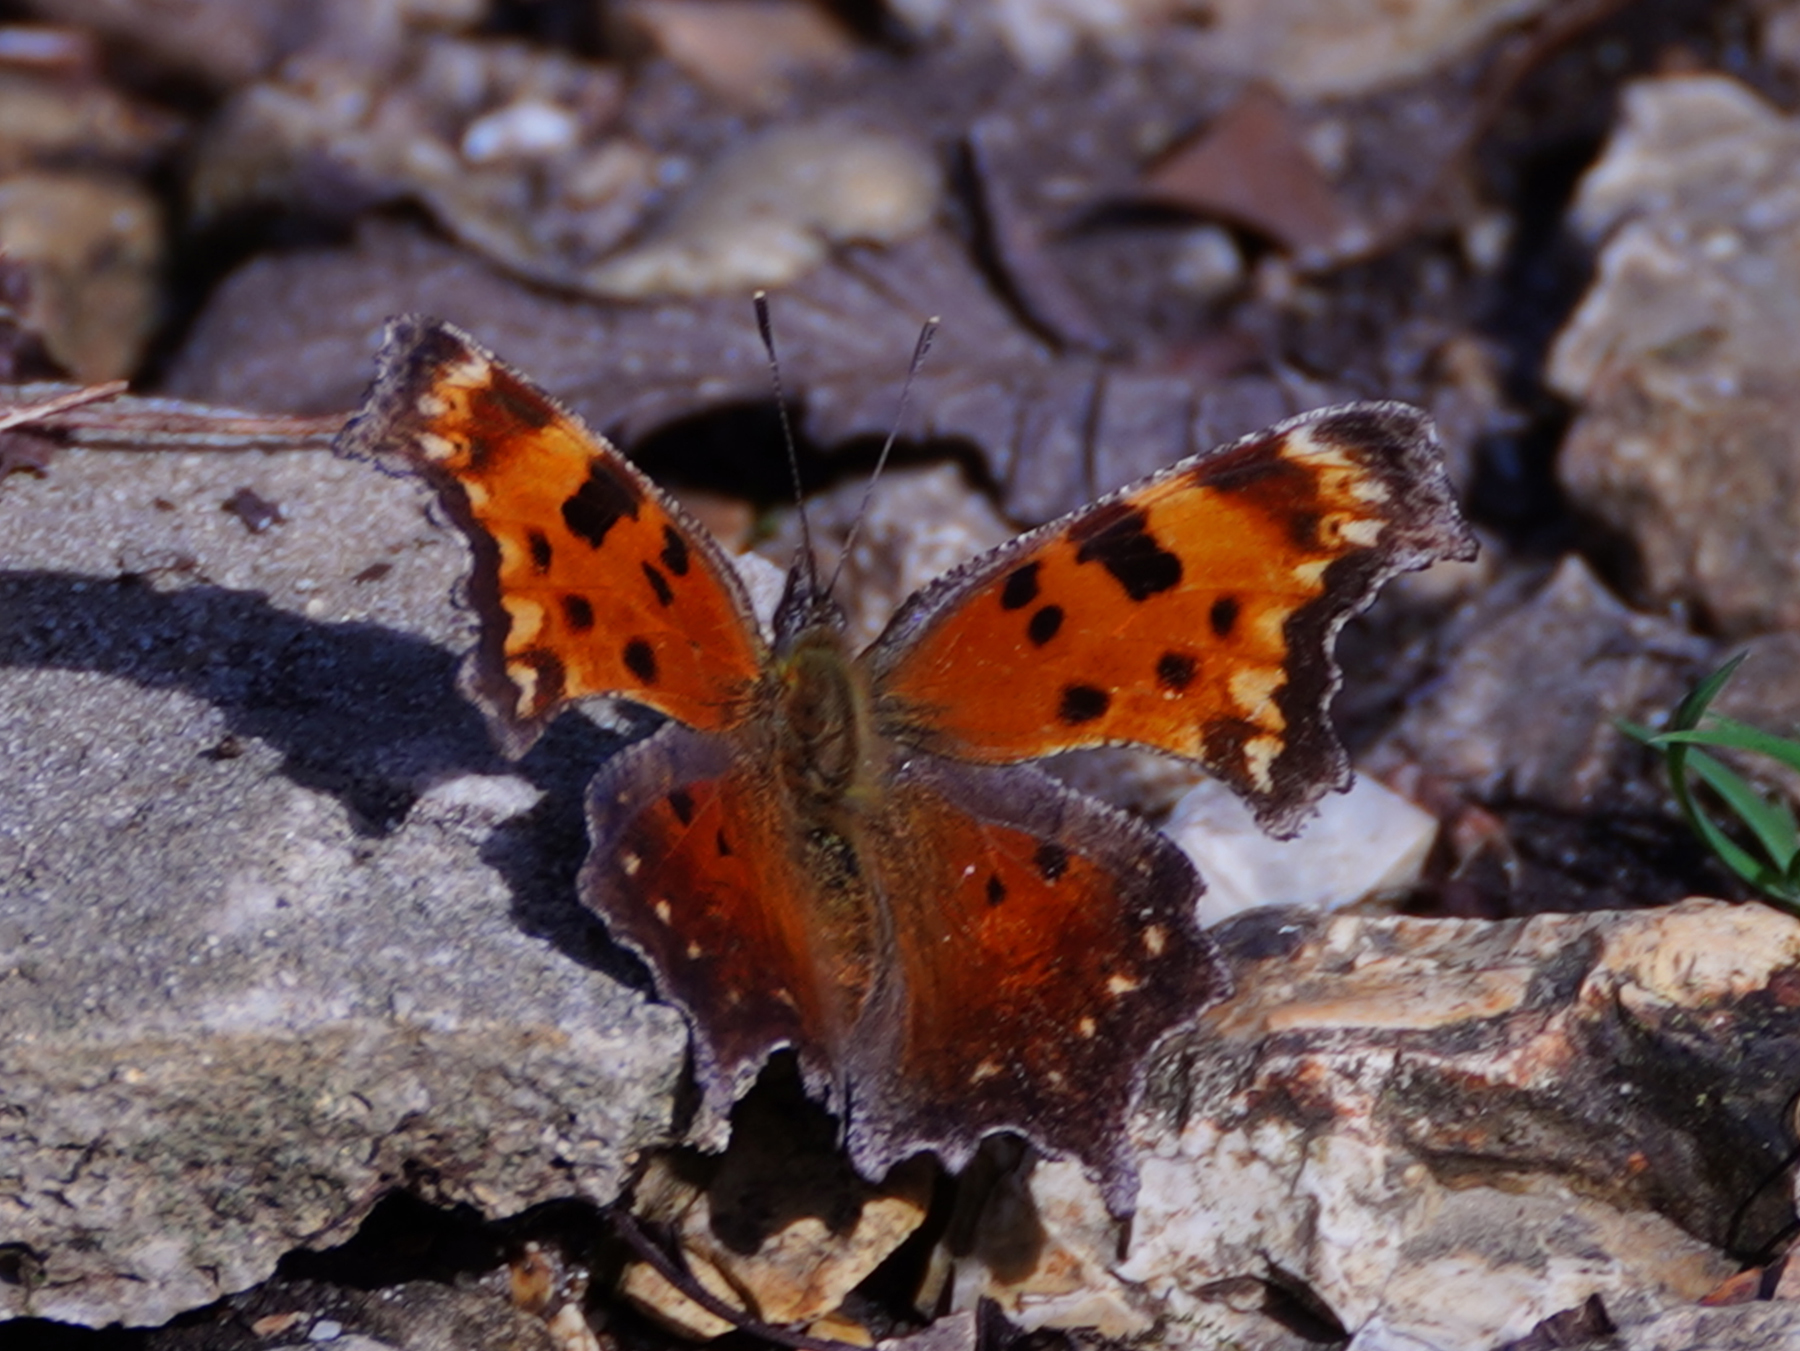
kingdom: Animalia
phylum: Arthropoda
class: Insecta
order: Lepidoptera
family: Nymphalidae
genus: Polygonia
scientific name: Polygonia progne
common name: Gray comma
